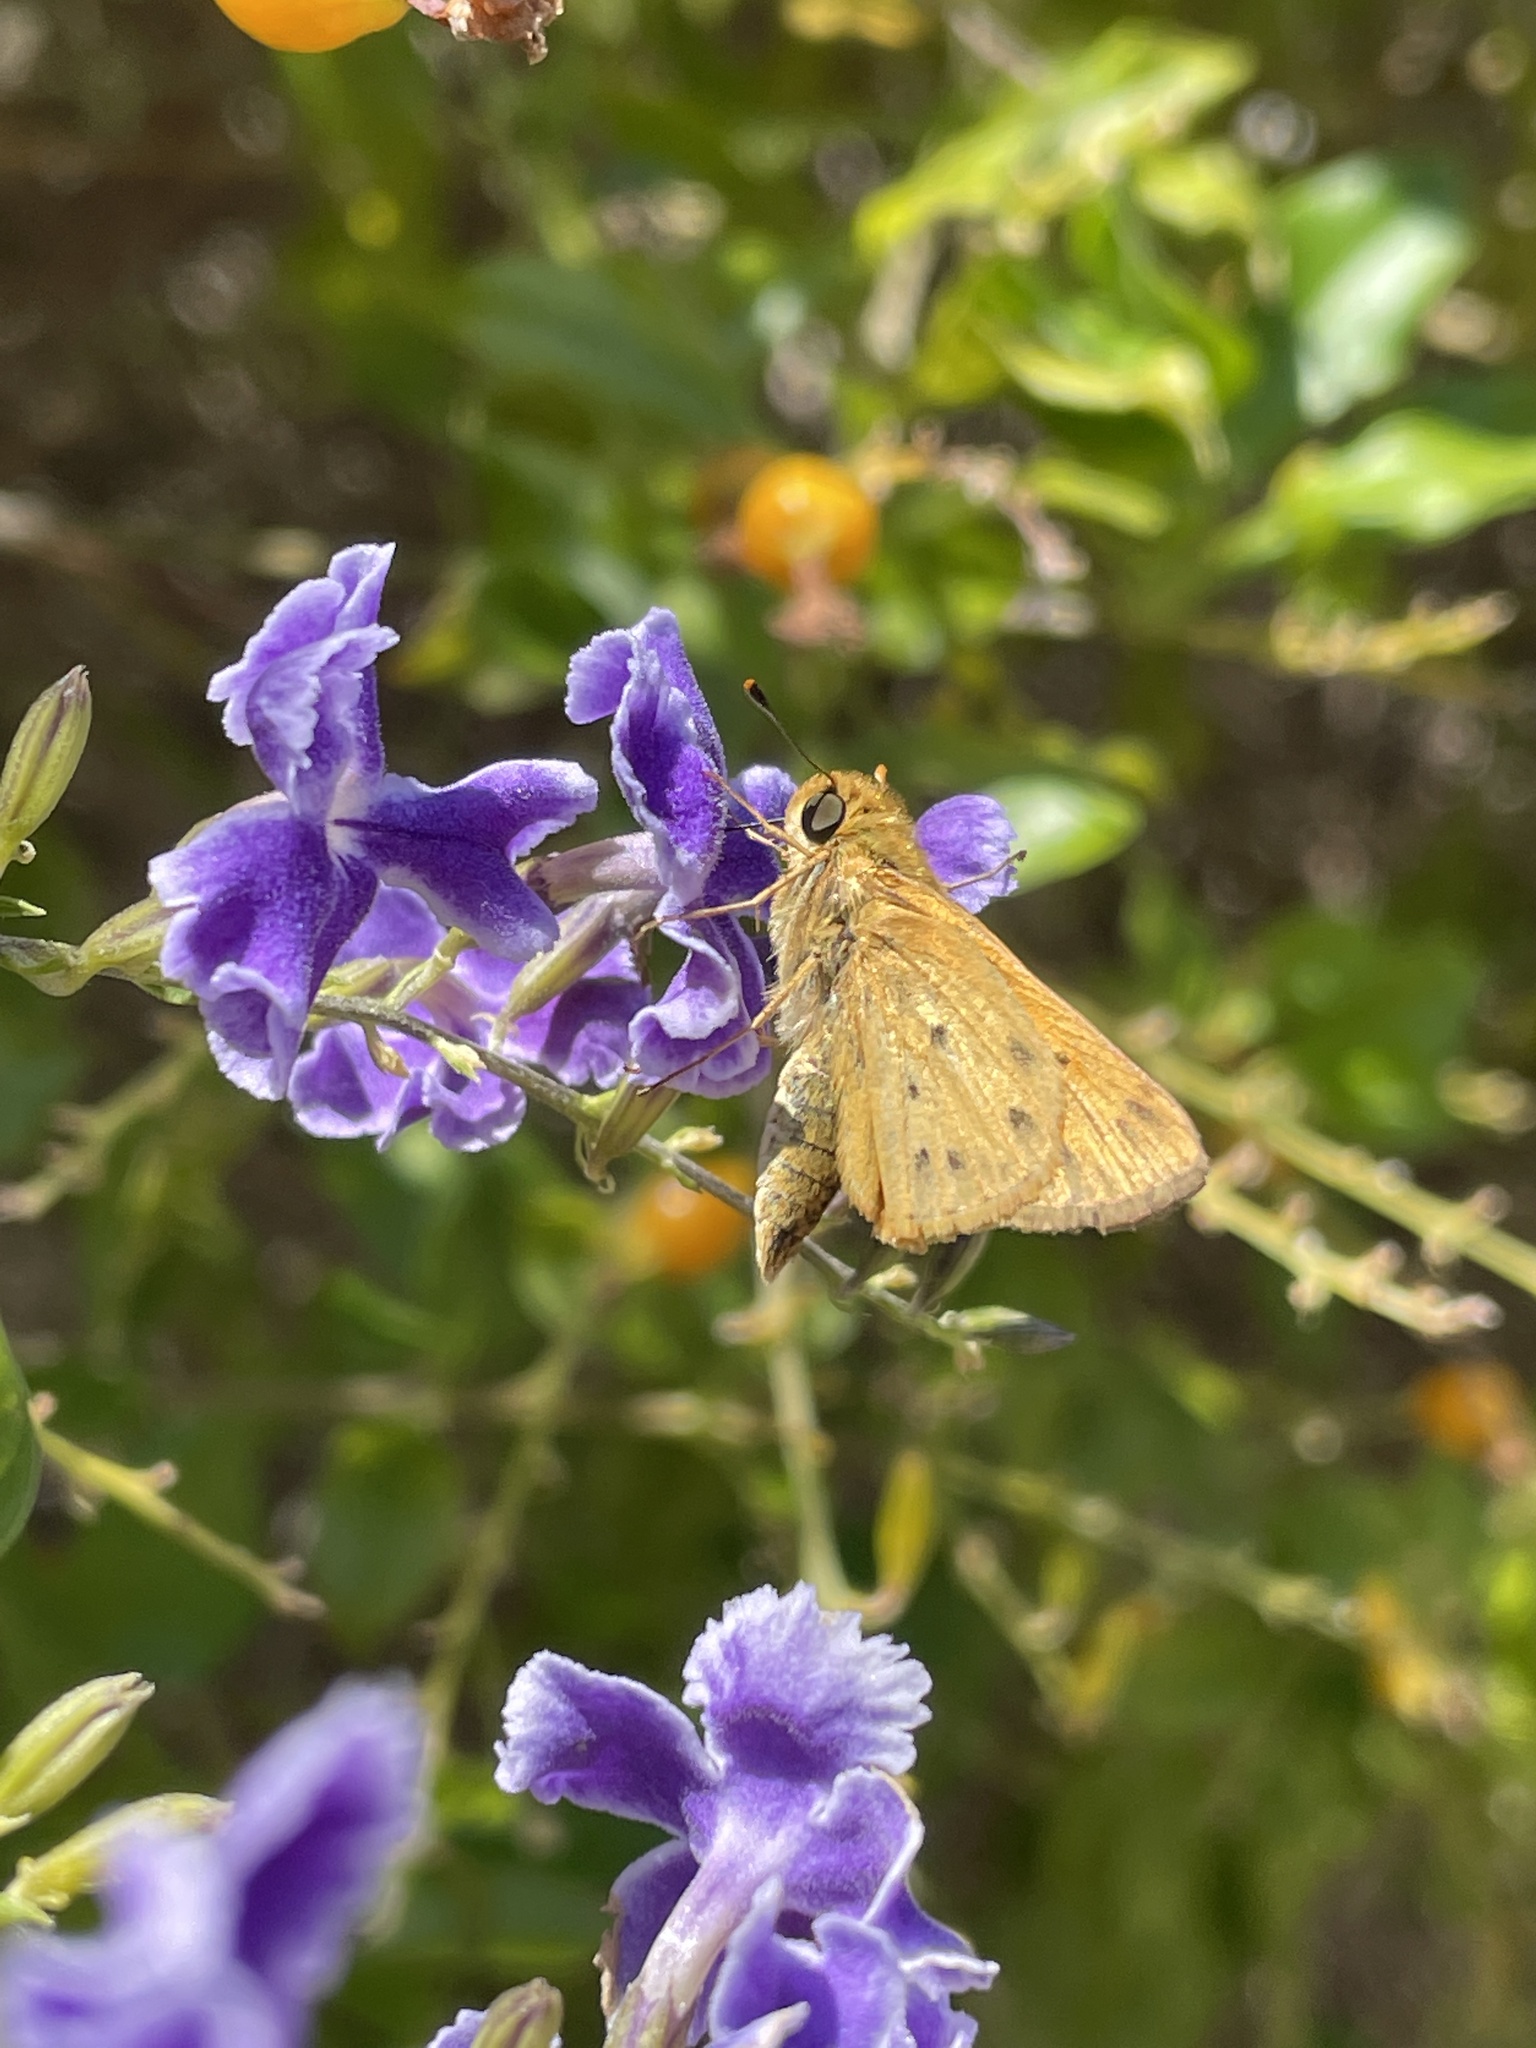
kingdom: Animalia
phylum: Arthropoda
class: Insecta
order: Lepidoptera
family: Hesperiidae
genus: Hylephila
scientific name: Hylephila phyleus
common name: Fiery skipper
